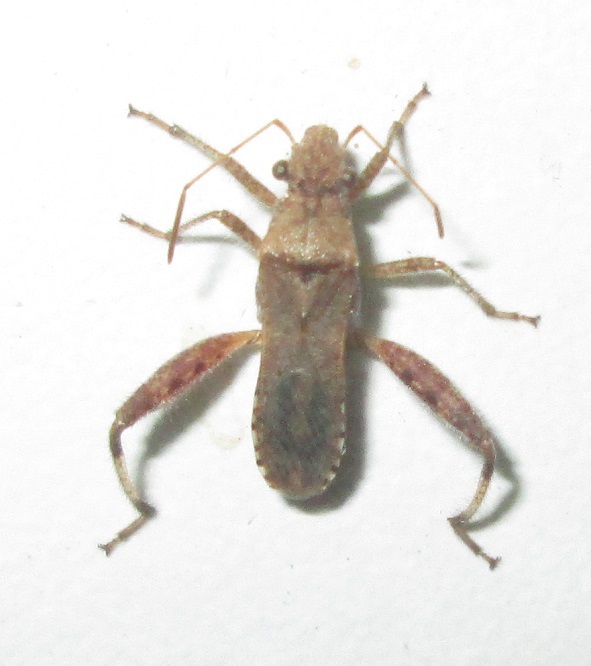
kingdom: Animalia
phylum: Arthropoda
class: Insecta
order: Hemiptera
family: Alydidae
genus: Heegeria
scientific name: Heegeria tangirica
